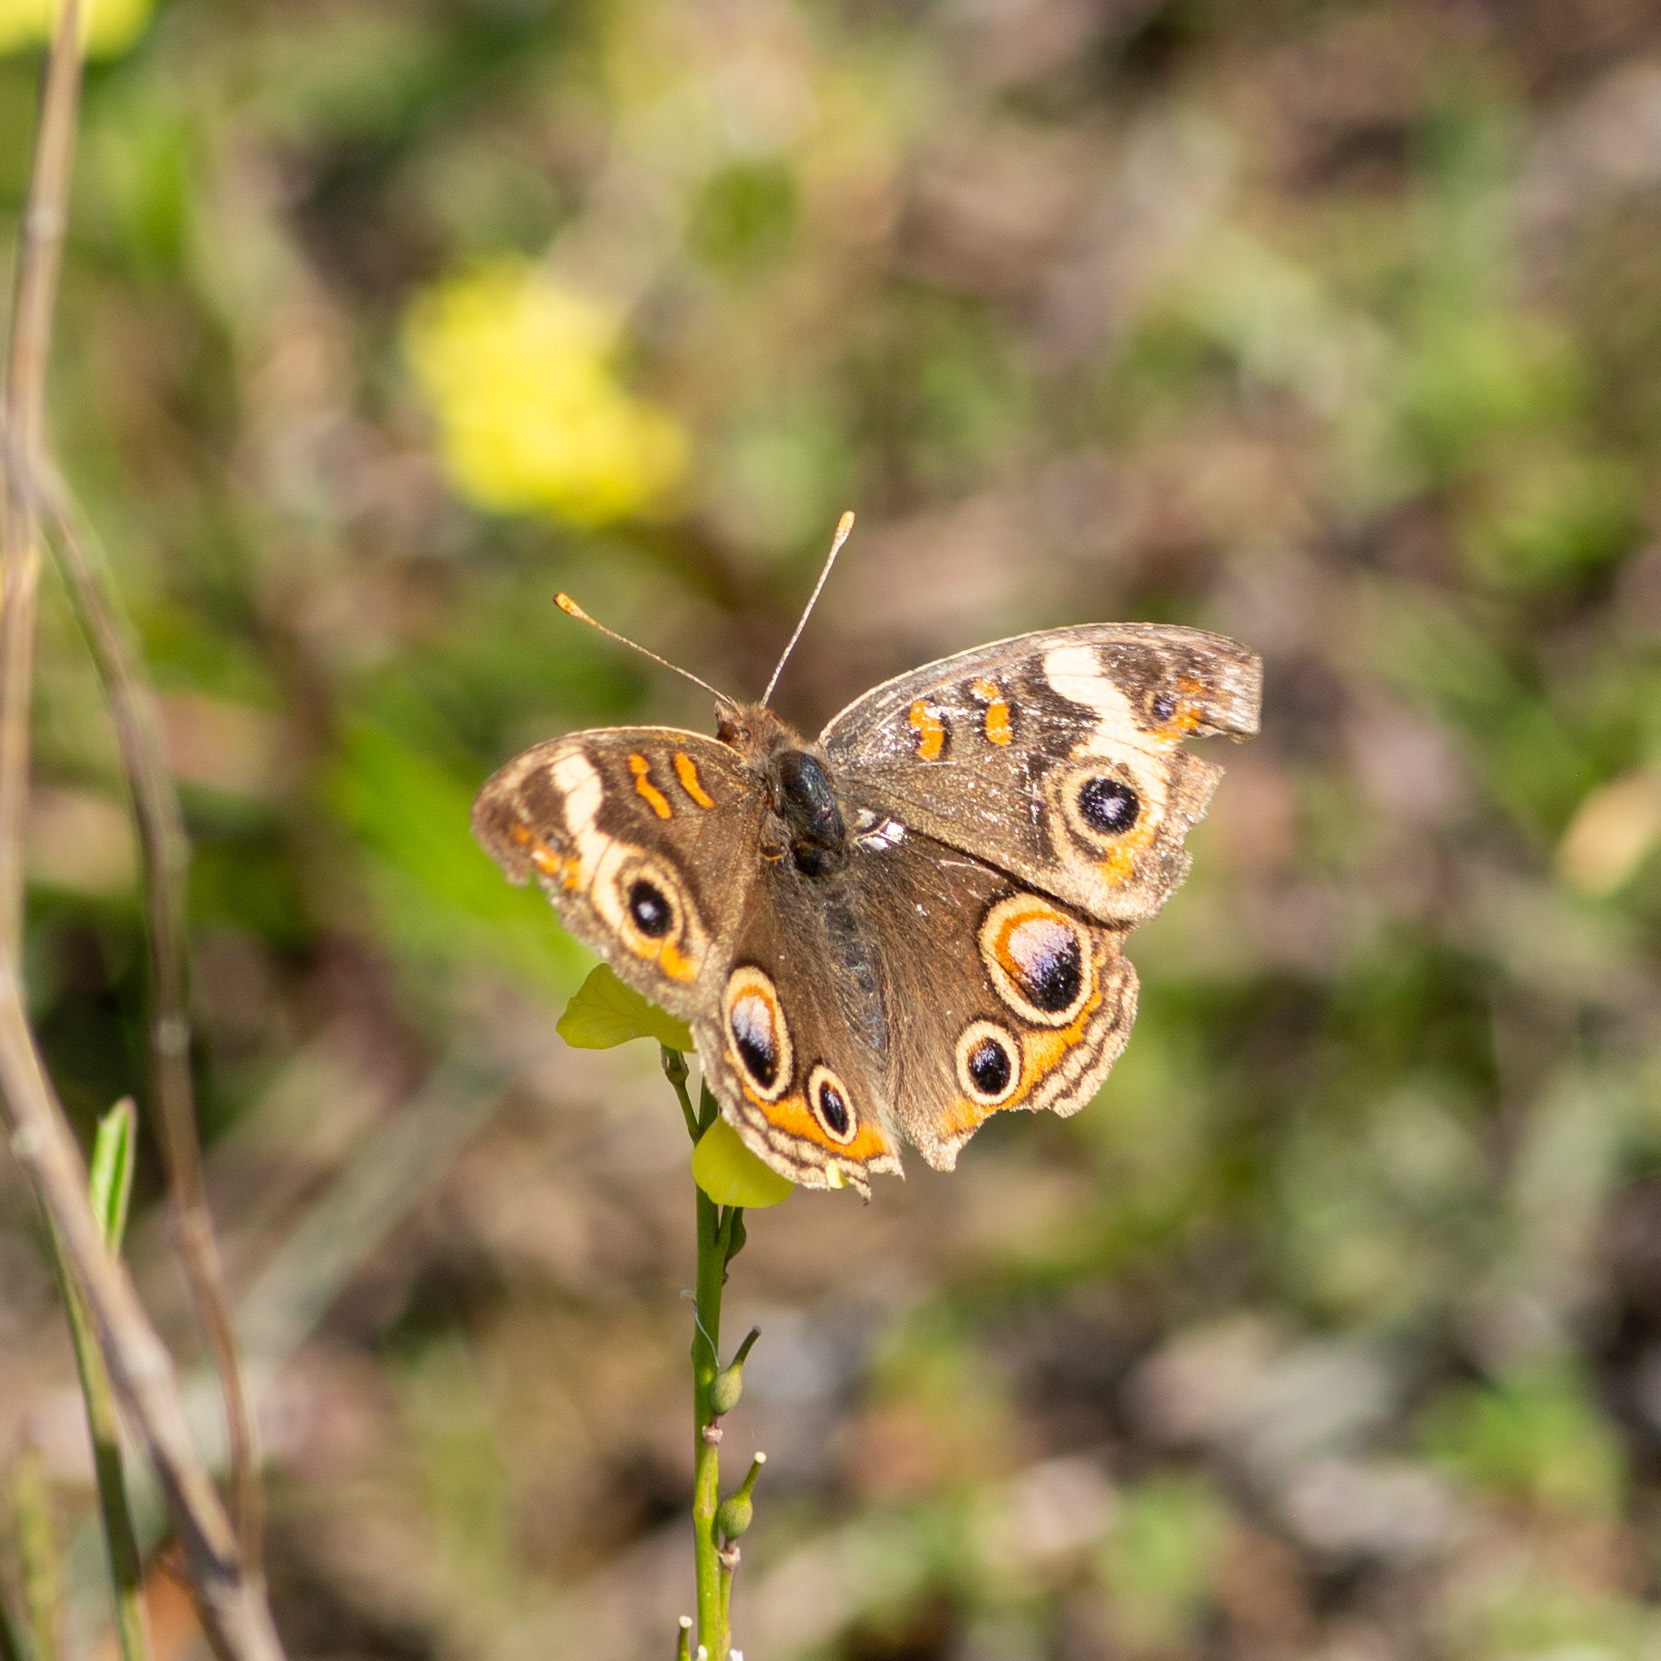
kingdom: Animalia
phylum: Arthropoda
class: Insecta
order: Lepidoptera
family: Nymphalidae
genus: Junonia
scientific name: Junonia coenia
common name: Common buckeye
